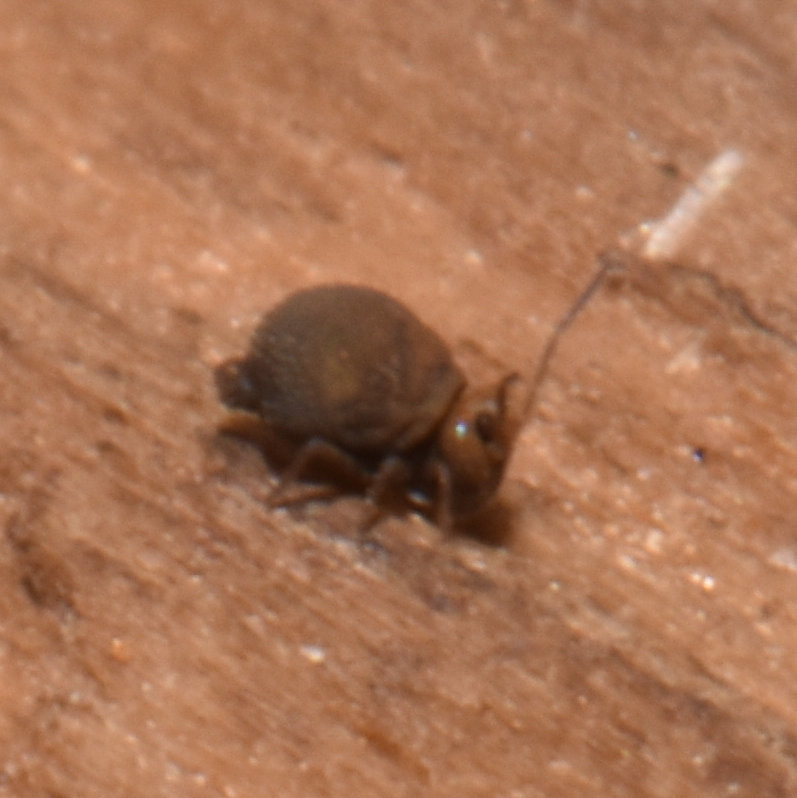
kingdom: Animalia
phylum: Arthropoda
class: Collembola
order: Symphypleona
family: Bourletiellidae
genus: Bourletiella
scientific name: Bourletiella hortensis
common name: Garden springtail
